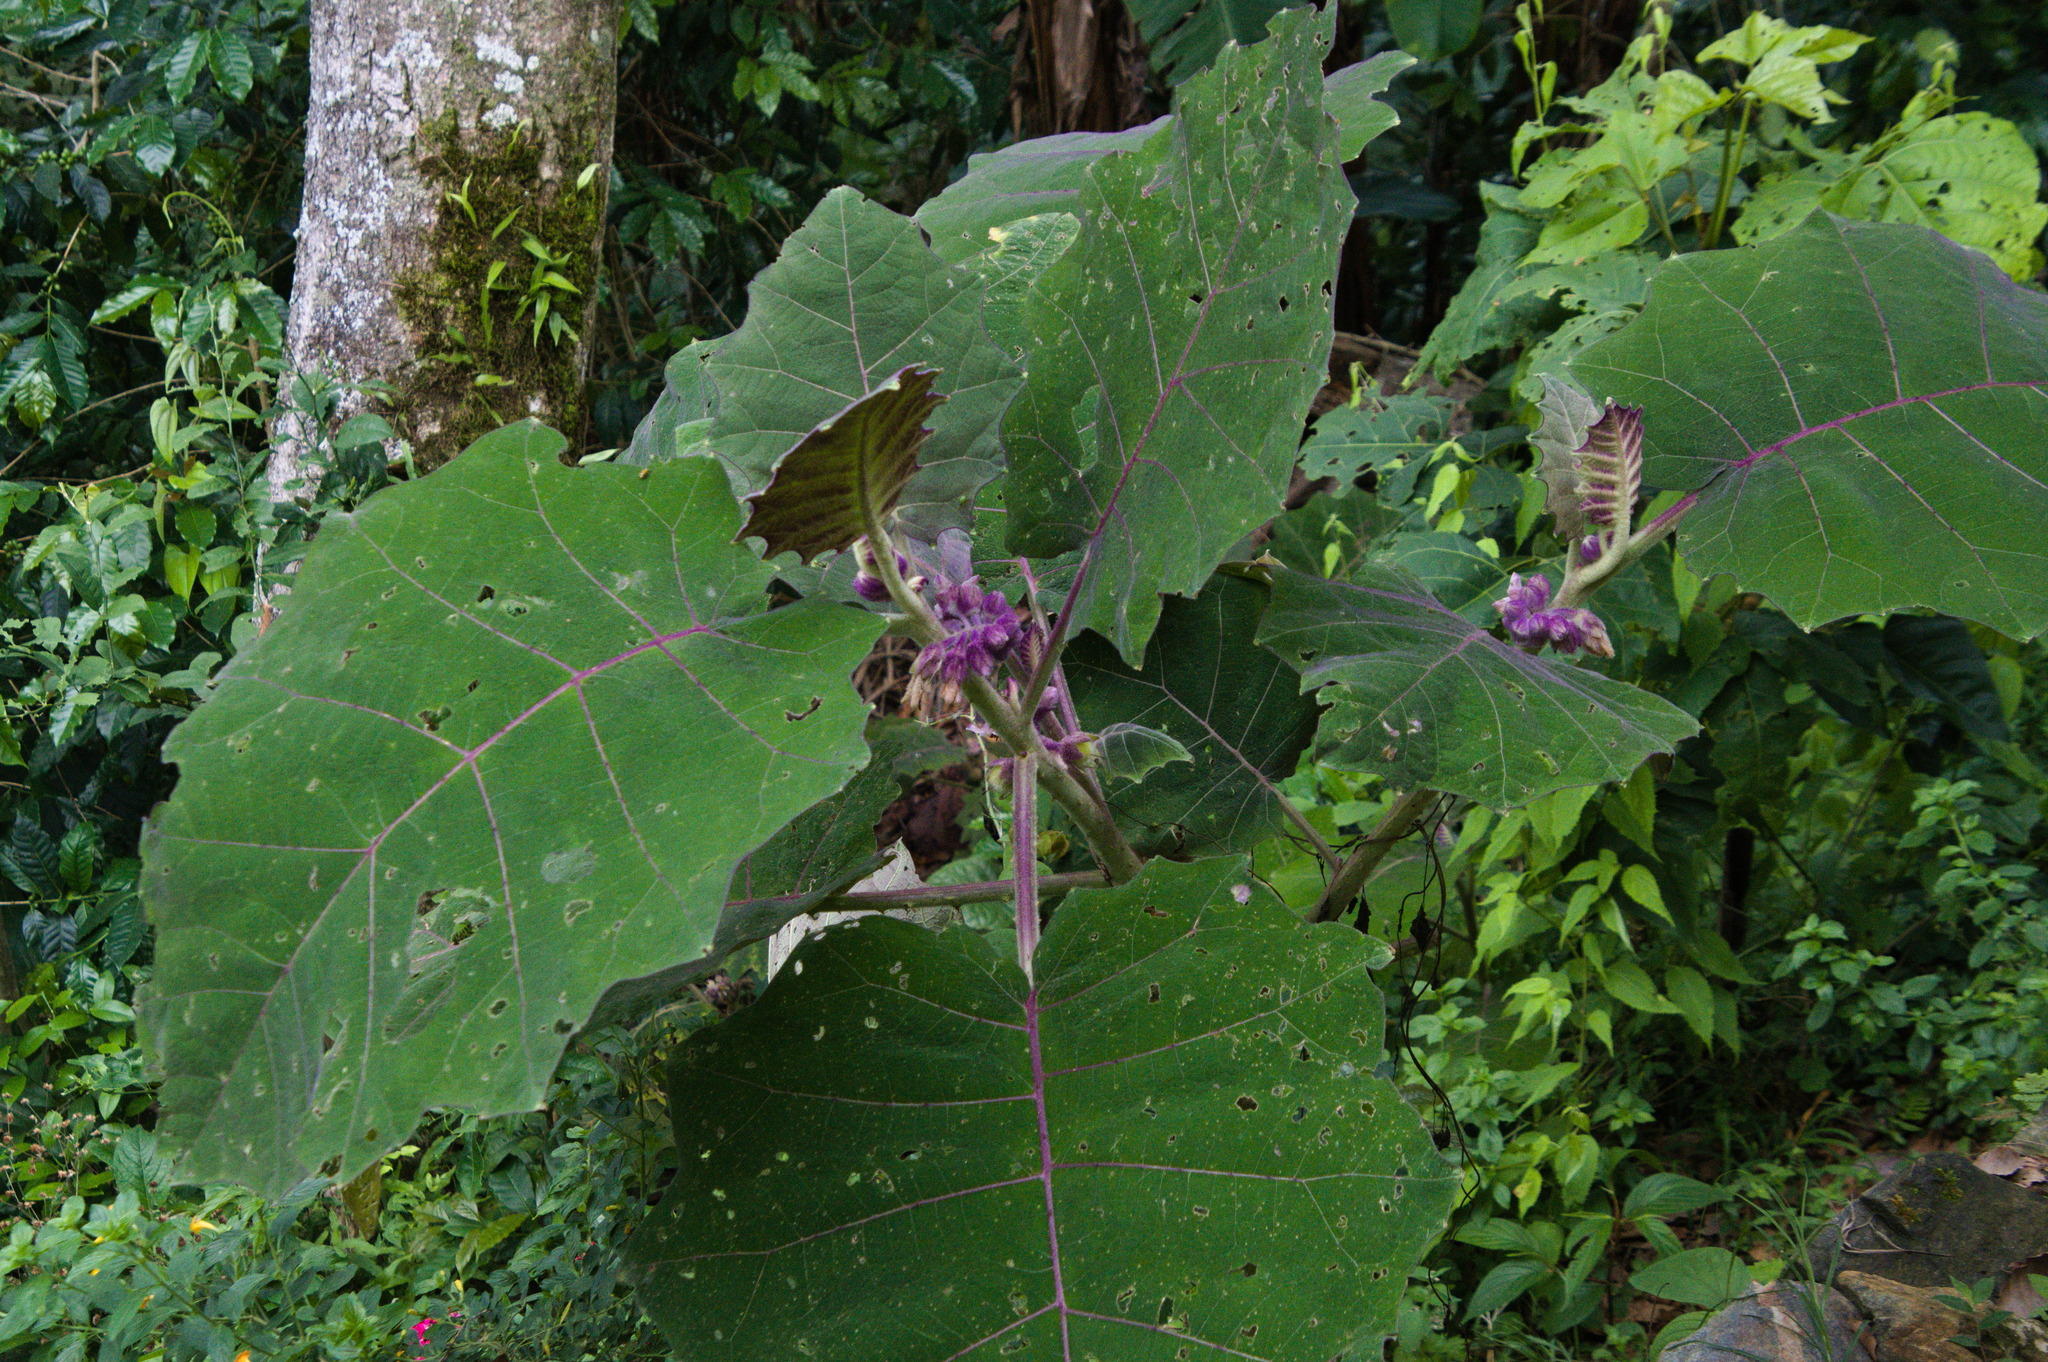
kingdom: Plantae
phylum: Tracheophyta
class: Magnoliopsida
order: Solanales
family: Solanaceae
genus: Solanum
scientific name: Solanum quitoense
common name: Quito-orange
